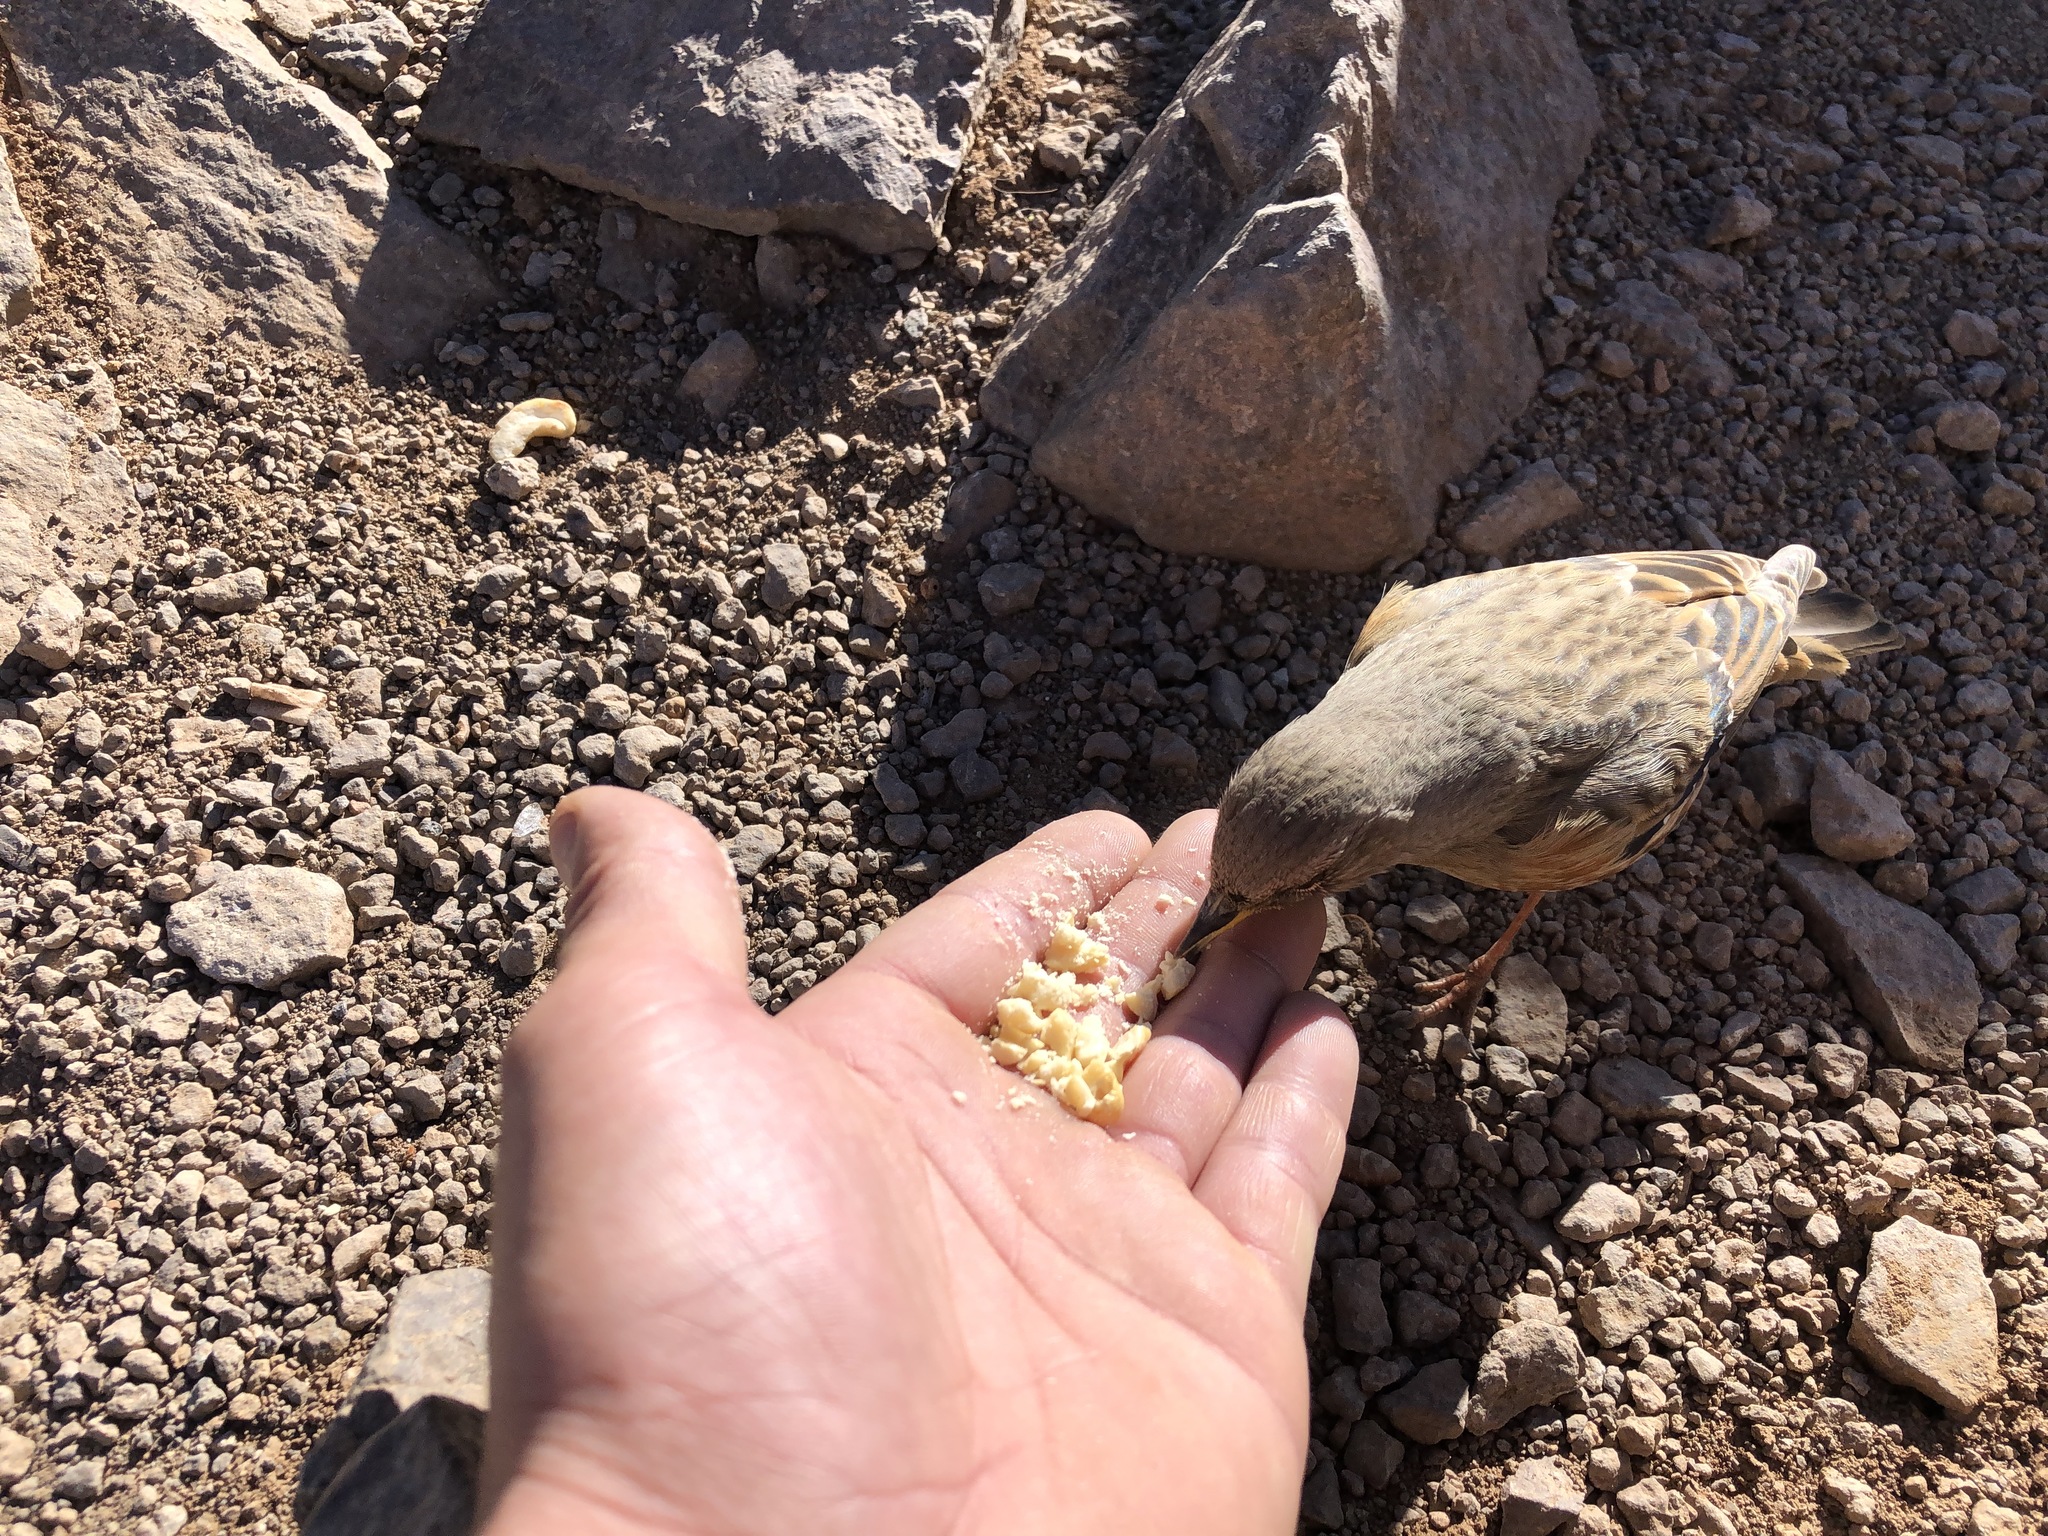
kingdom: Animalia
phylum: Chordata
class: Aves
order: Passeriformes
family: Prunellidae
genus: Prunella
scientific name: Prunella collaris
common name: Alpine accentor
